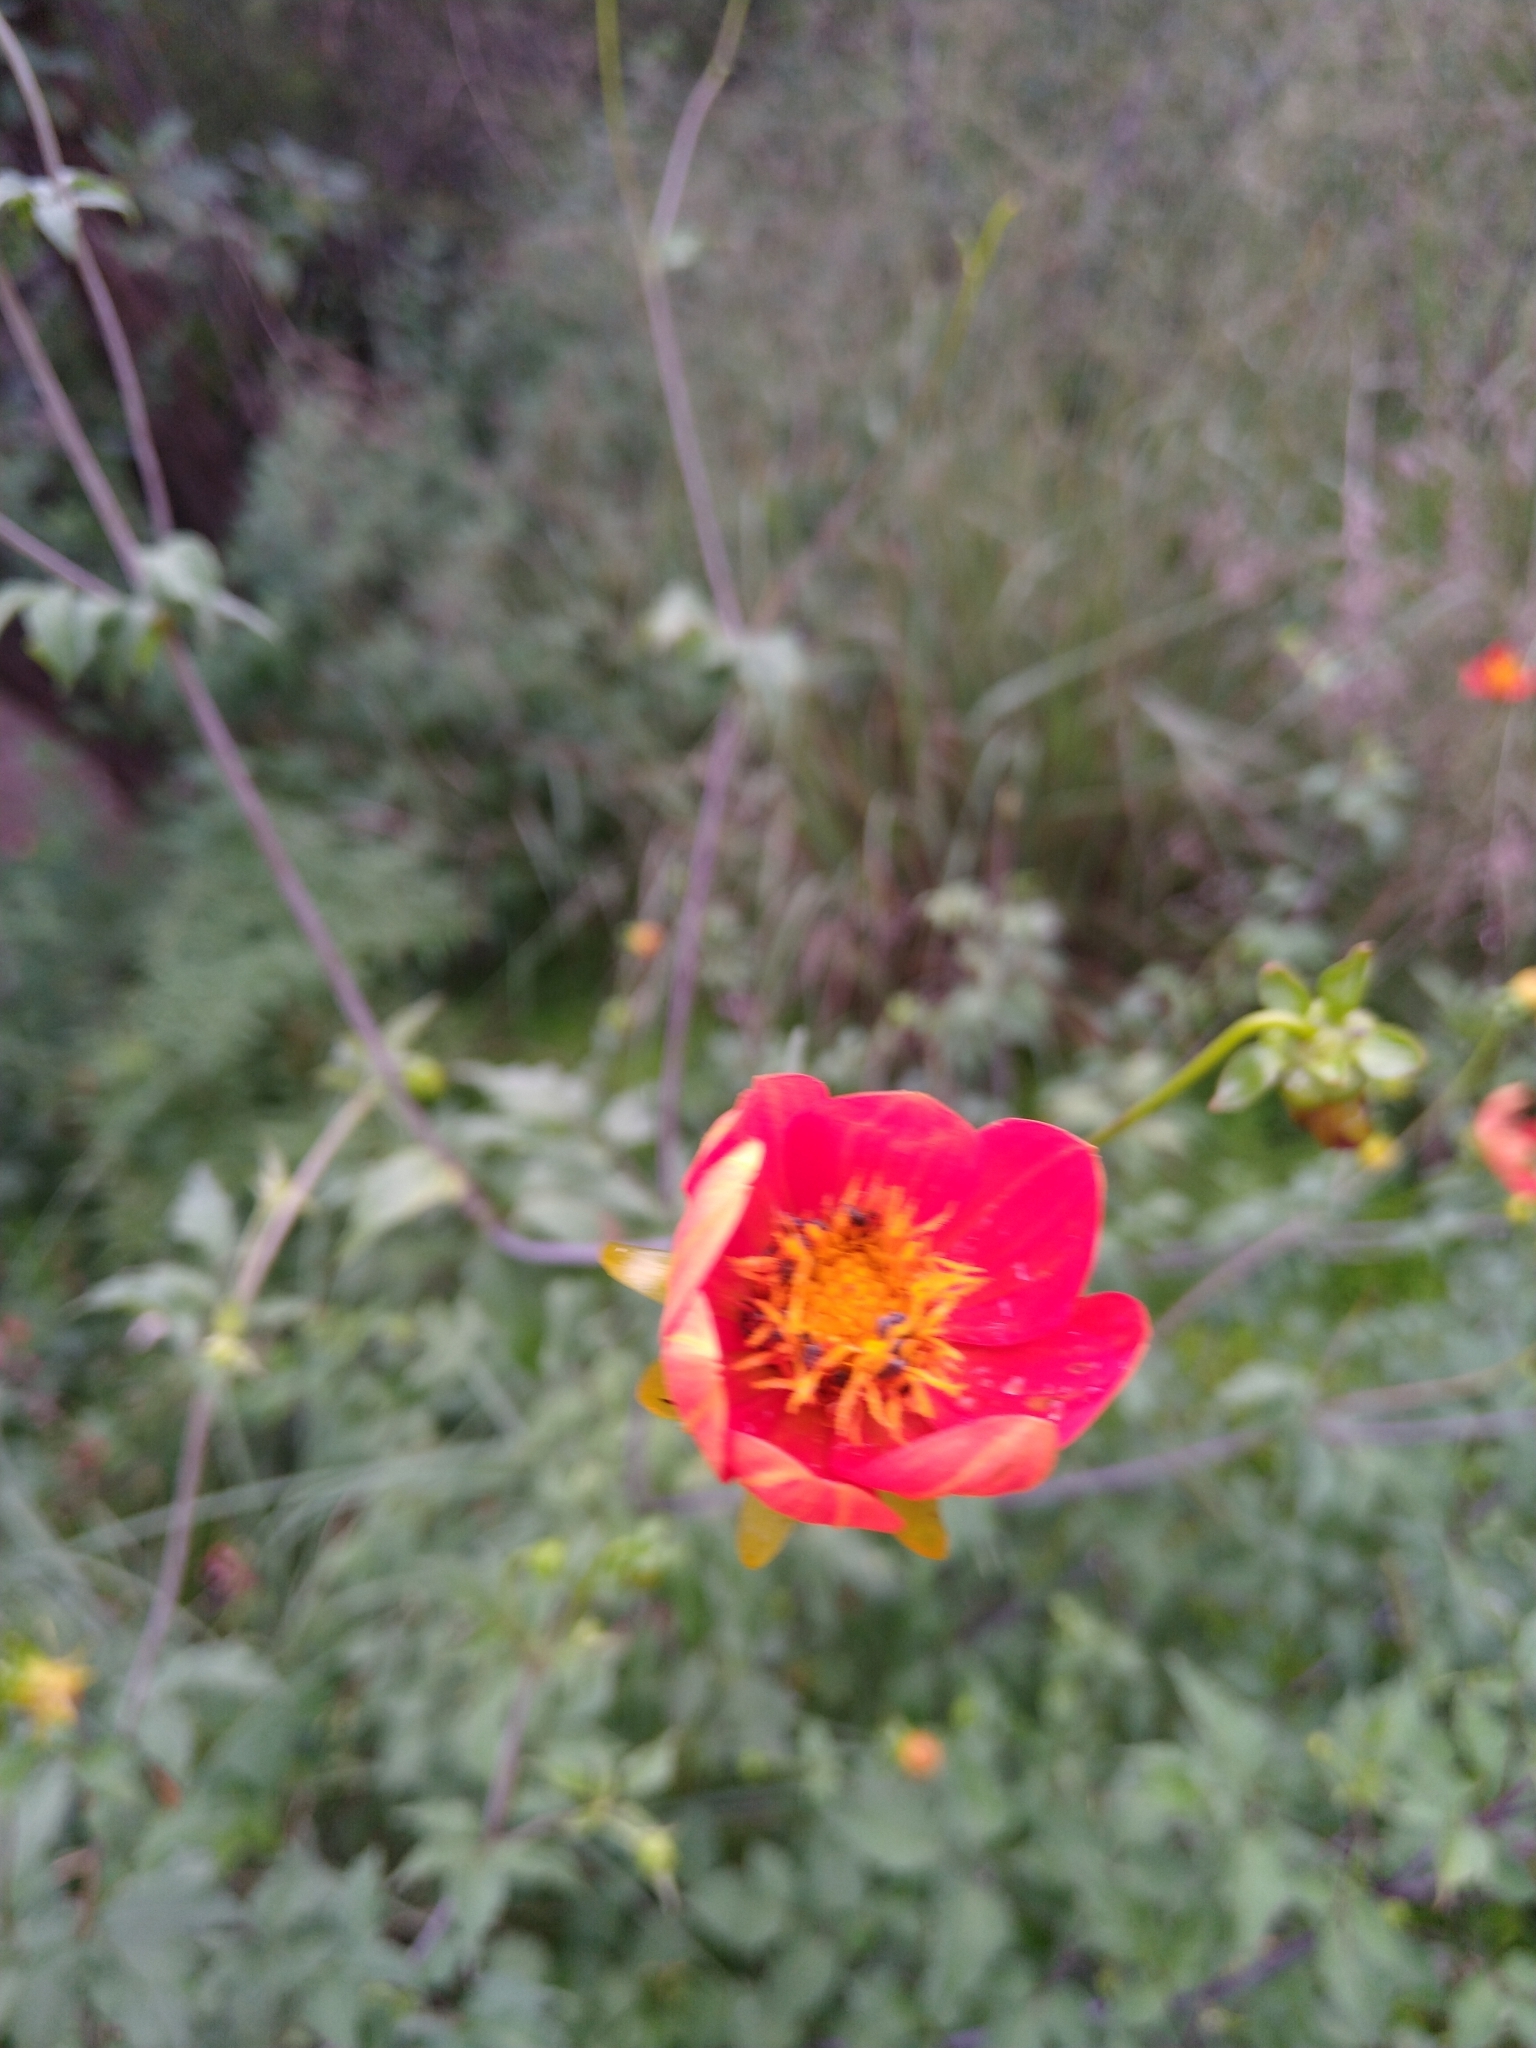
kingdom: Plantae
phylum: Tracheophyta
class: Magnoliopsida
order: Asterales
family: Asteraceae
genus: Dahlia
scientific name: Dahlia coccinea
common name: Red dahlia
